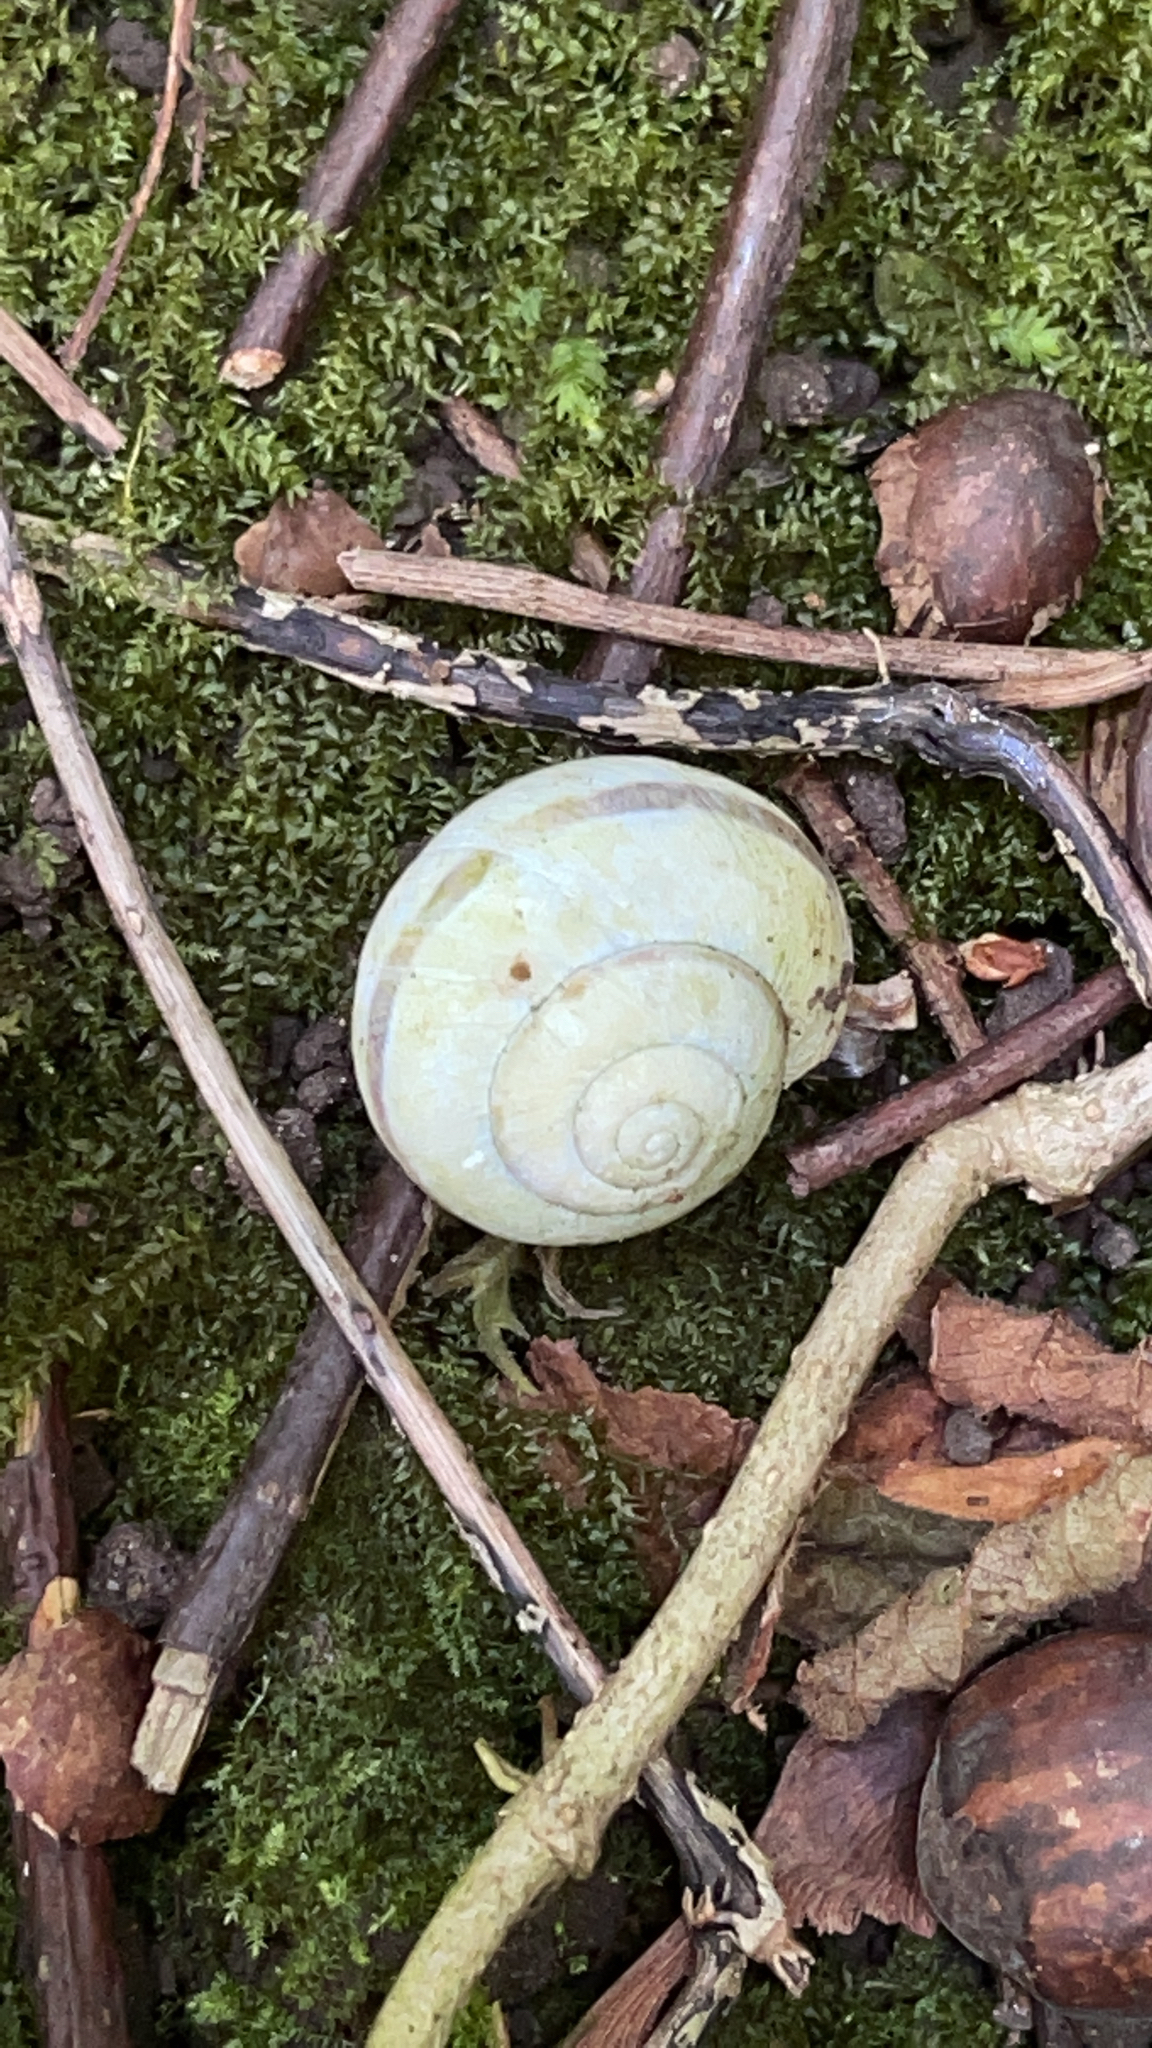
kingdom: Animalia
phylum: Mollusca
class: Gastropoda
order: Stylommatophora
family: Helicidae
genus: Cepaea
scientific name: Cepaea
